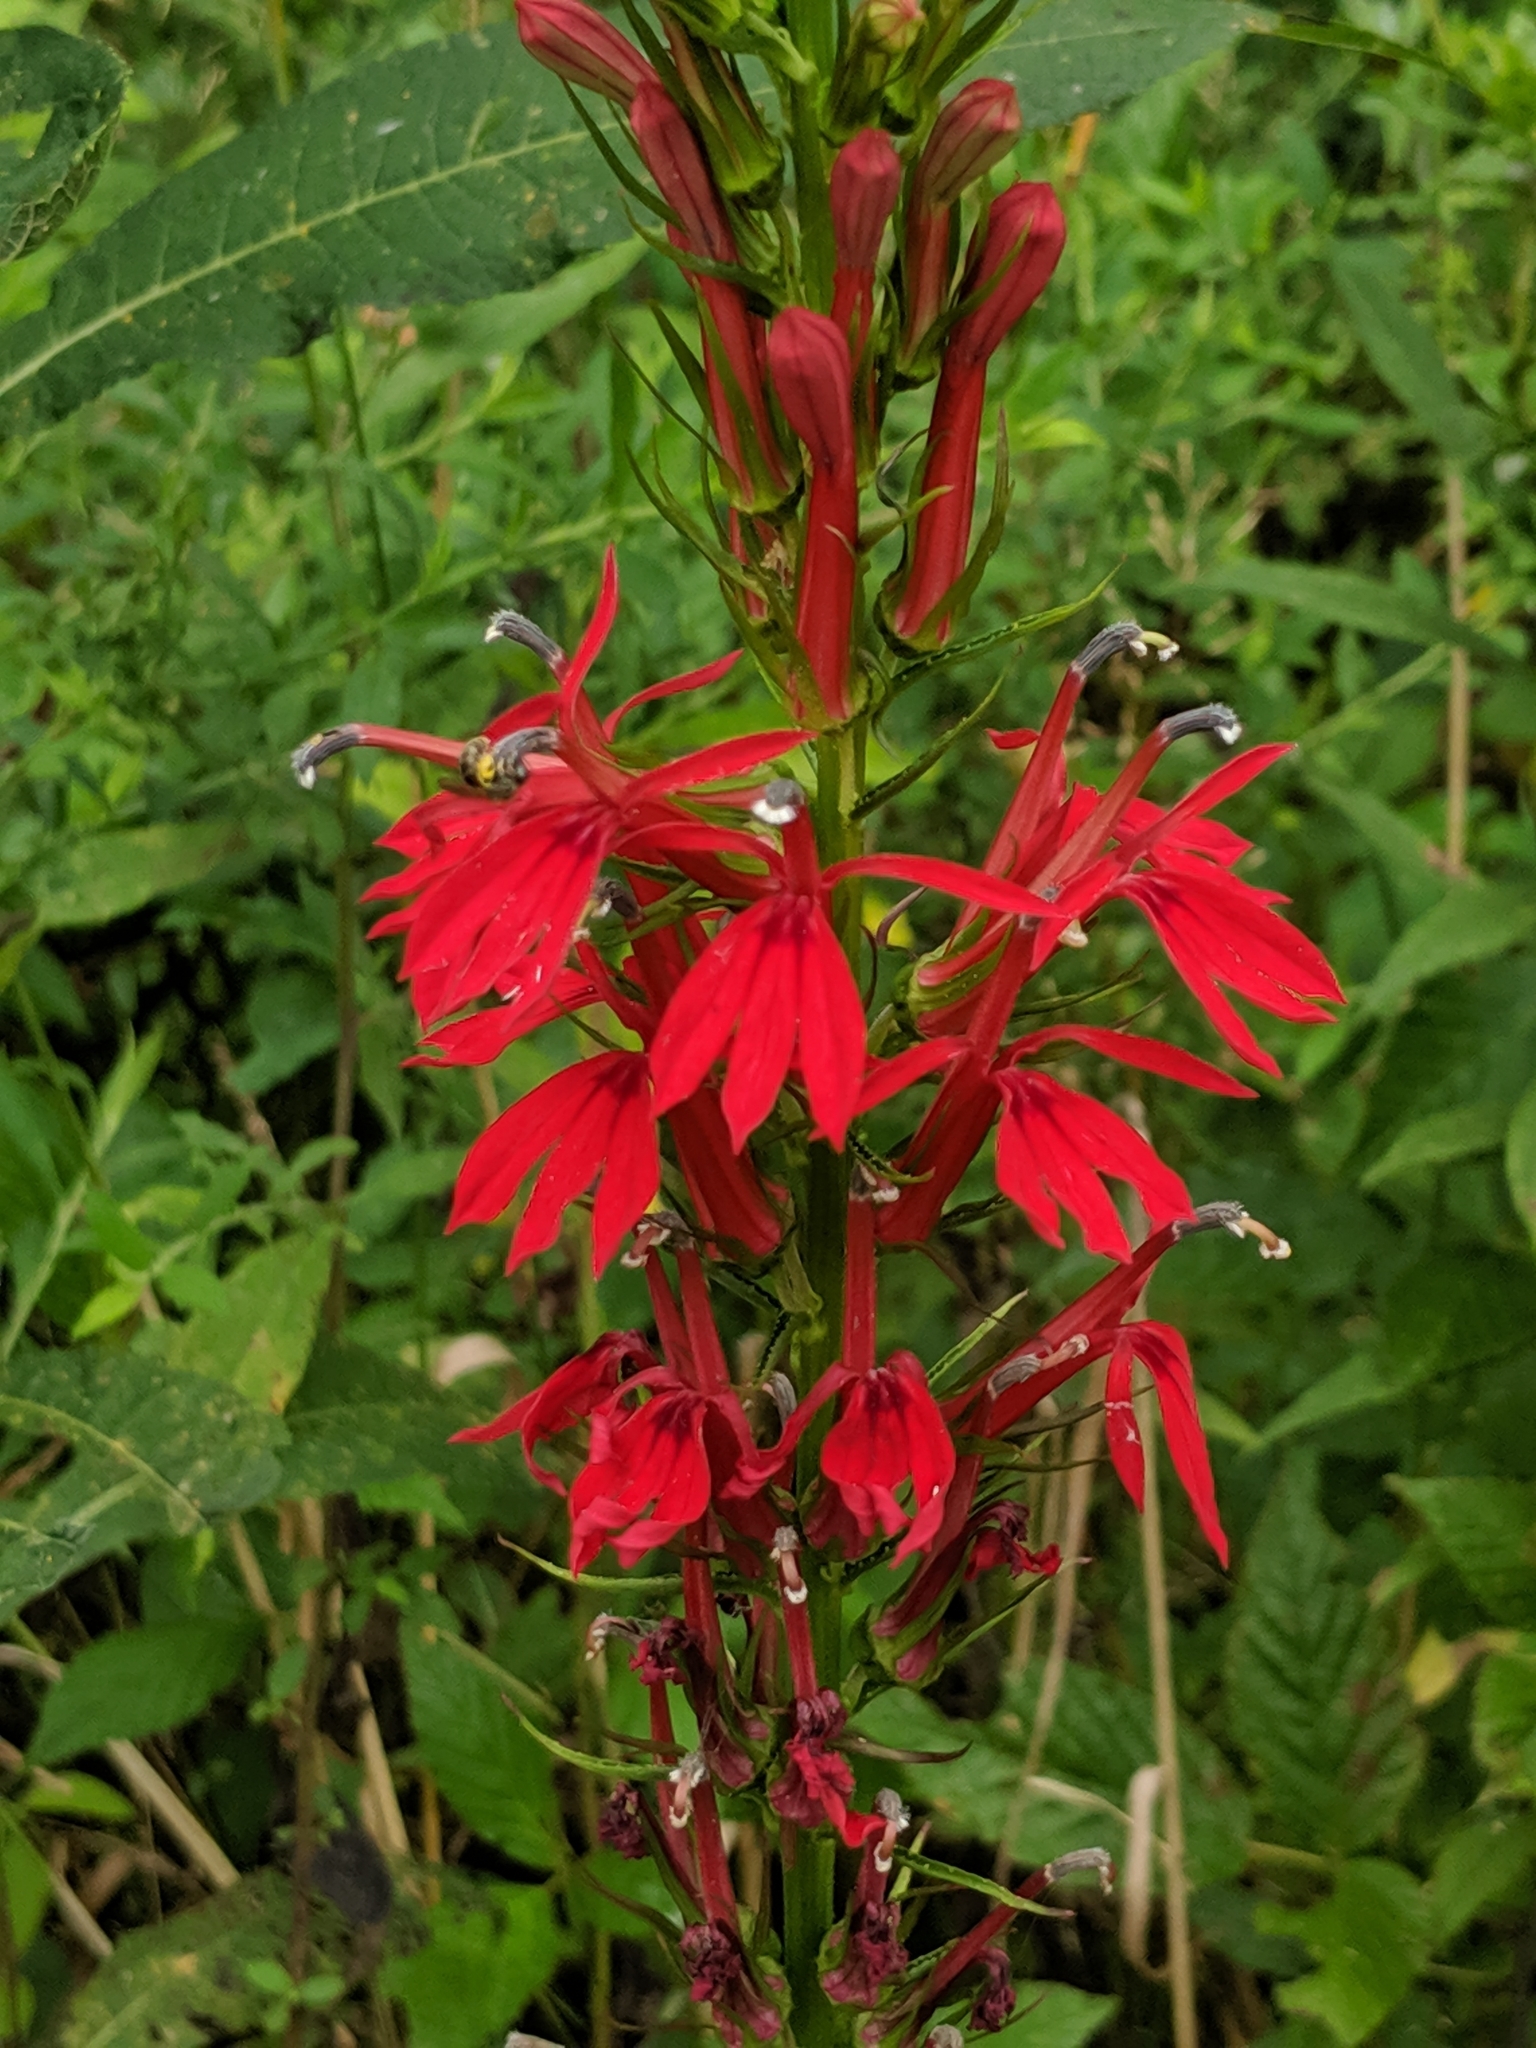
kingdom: Plantae
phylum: Tracheophyta
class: Magnoliopsida
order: Asterales
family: Campanulaceae
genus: Lobelia
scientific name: Lobelia cardinalis
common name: Cardinal flower
